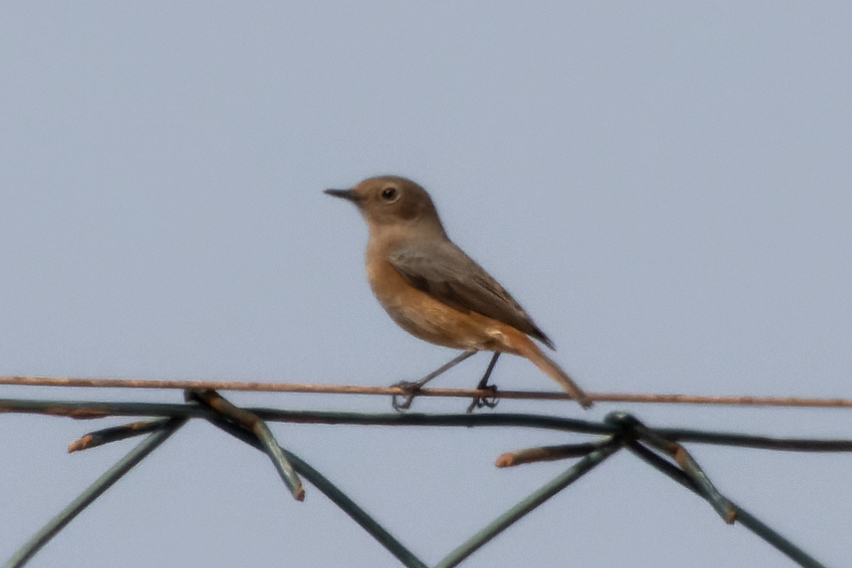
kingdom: Animalia
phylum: Chordata
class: Aves
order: Passeriformes
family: Muscicapidae
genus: Phoenicurus
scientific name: Phoenicurus phoenicurus
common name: Common redstart
